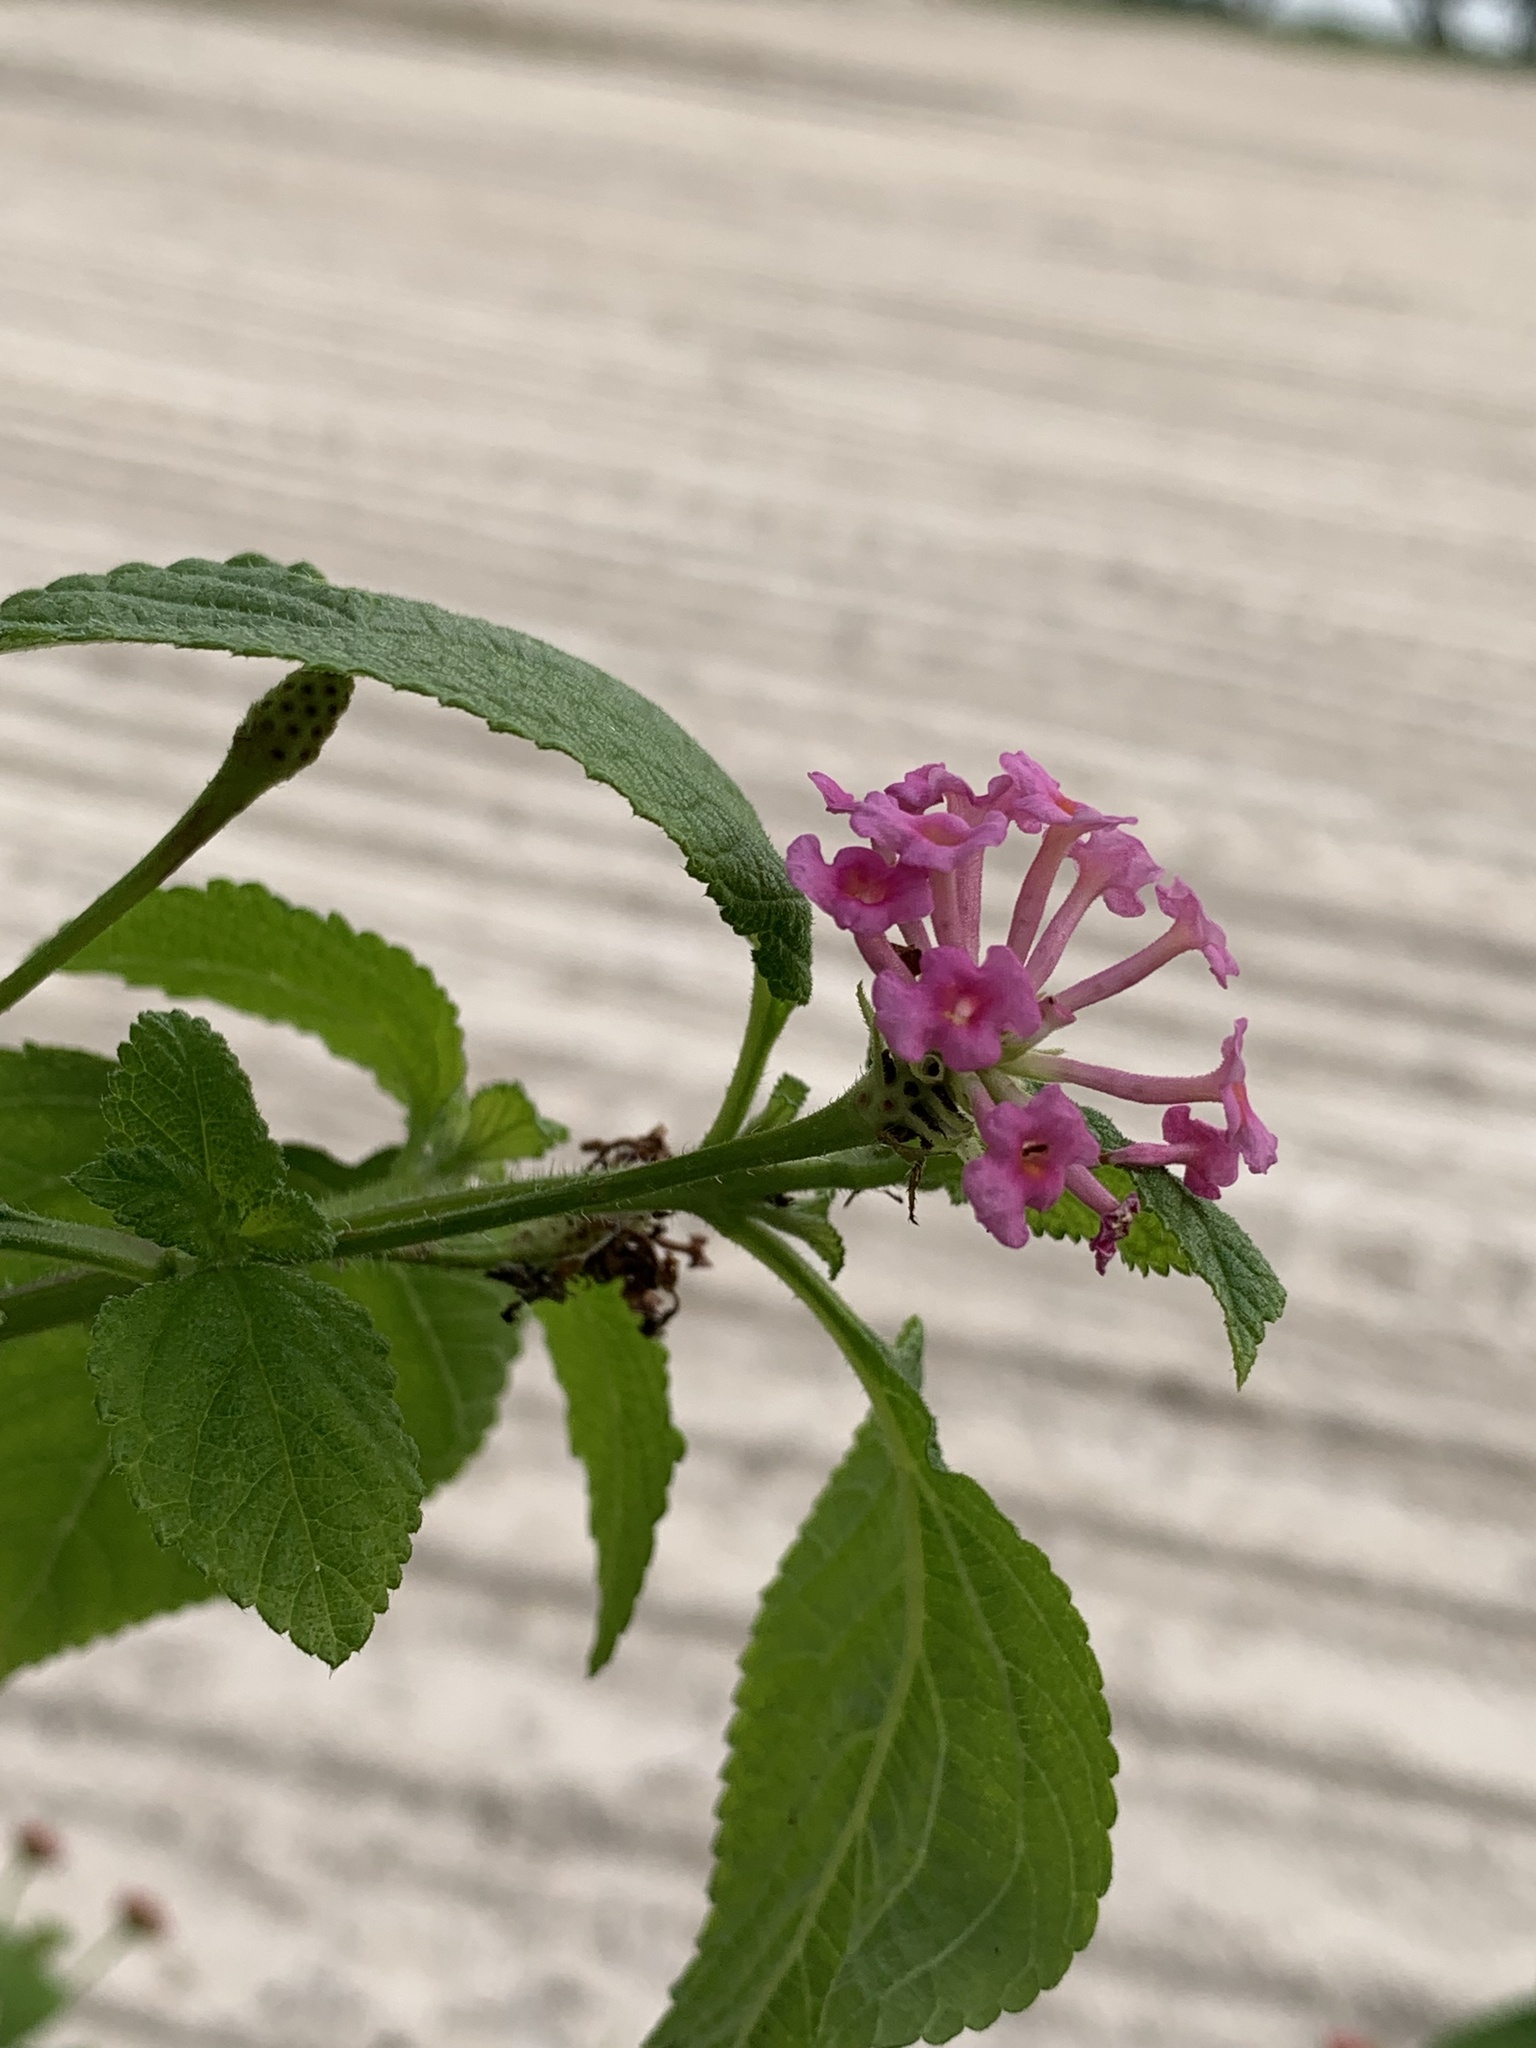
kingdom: Plantae
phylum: Tracheophyta
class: Magnoliopsida
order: Lamiales
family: Verbenaceae
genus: Lantana
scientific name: Lantana camara
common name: Lantana
